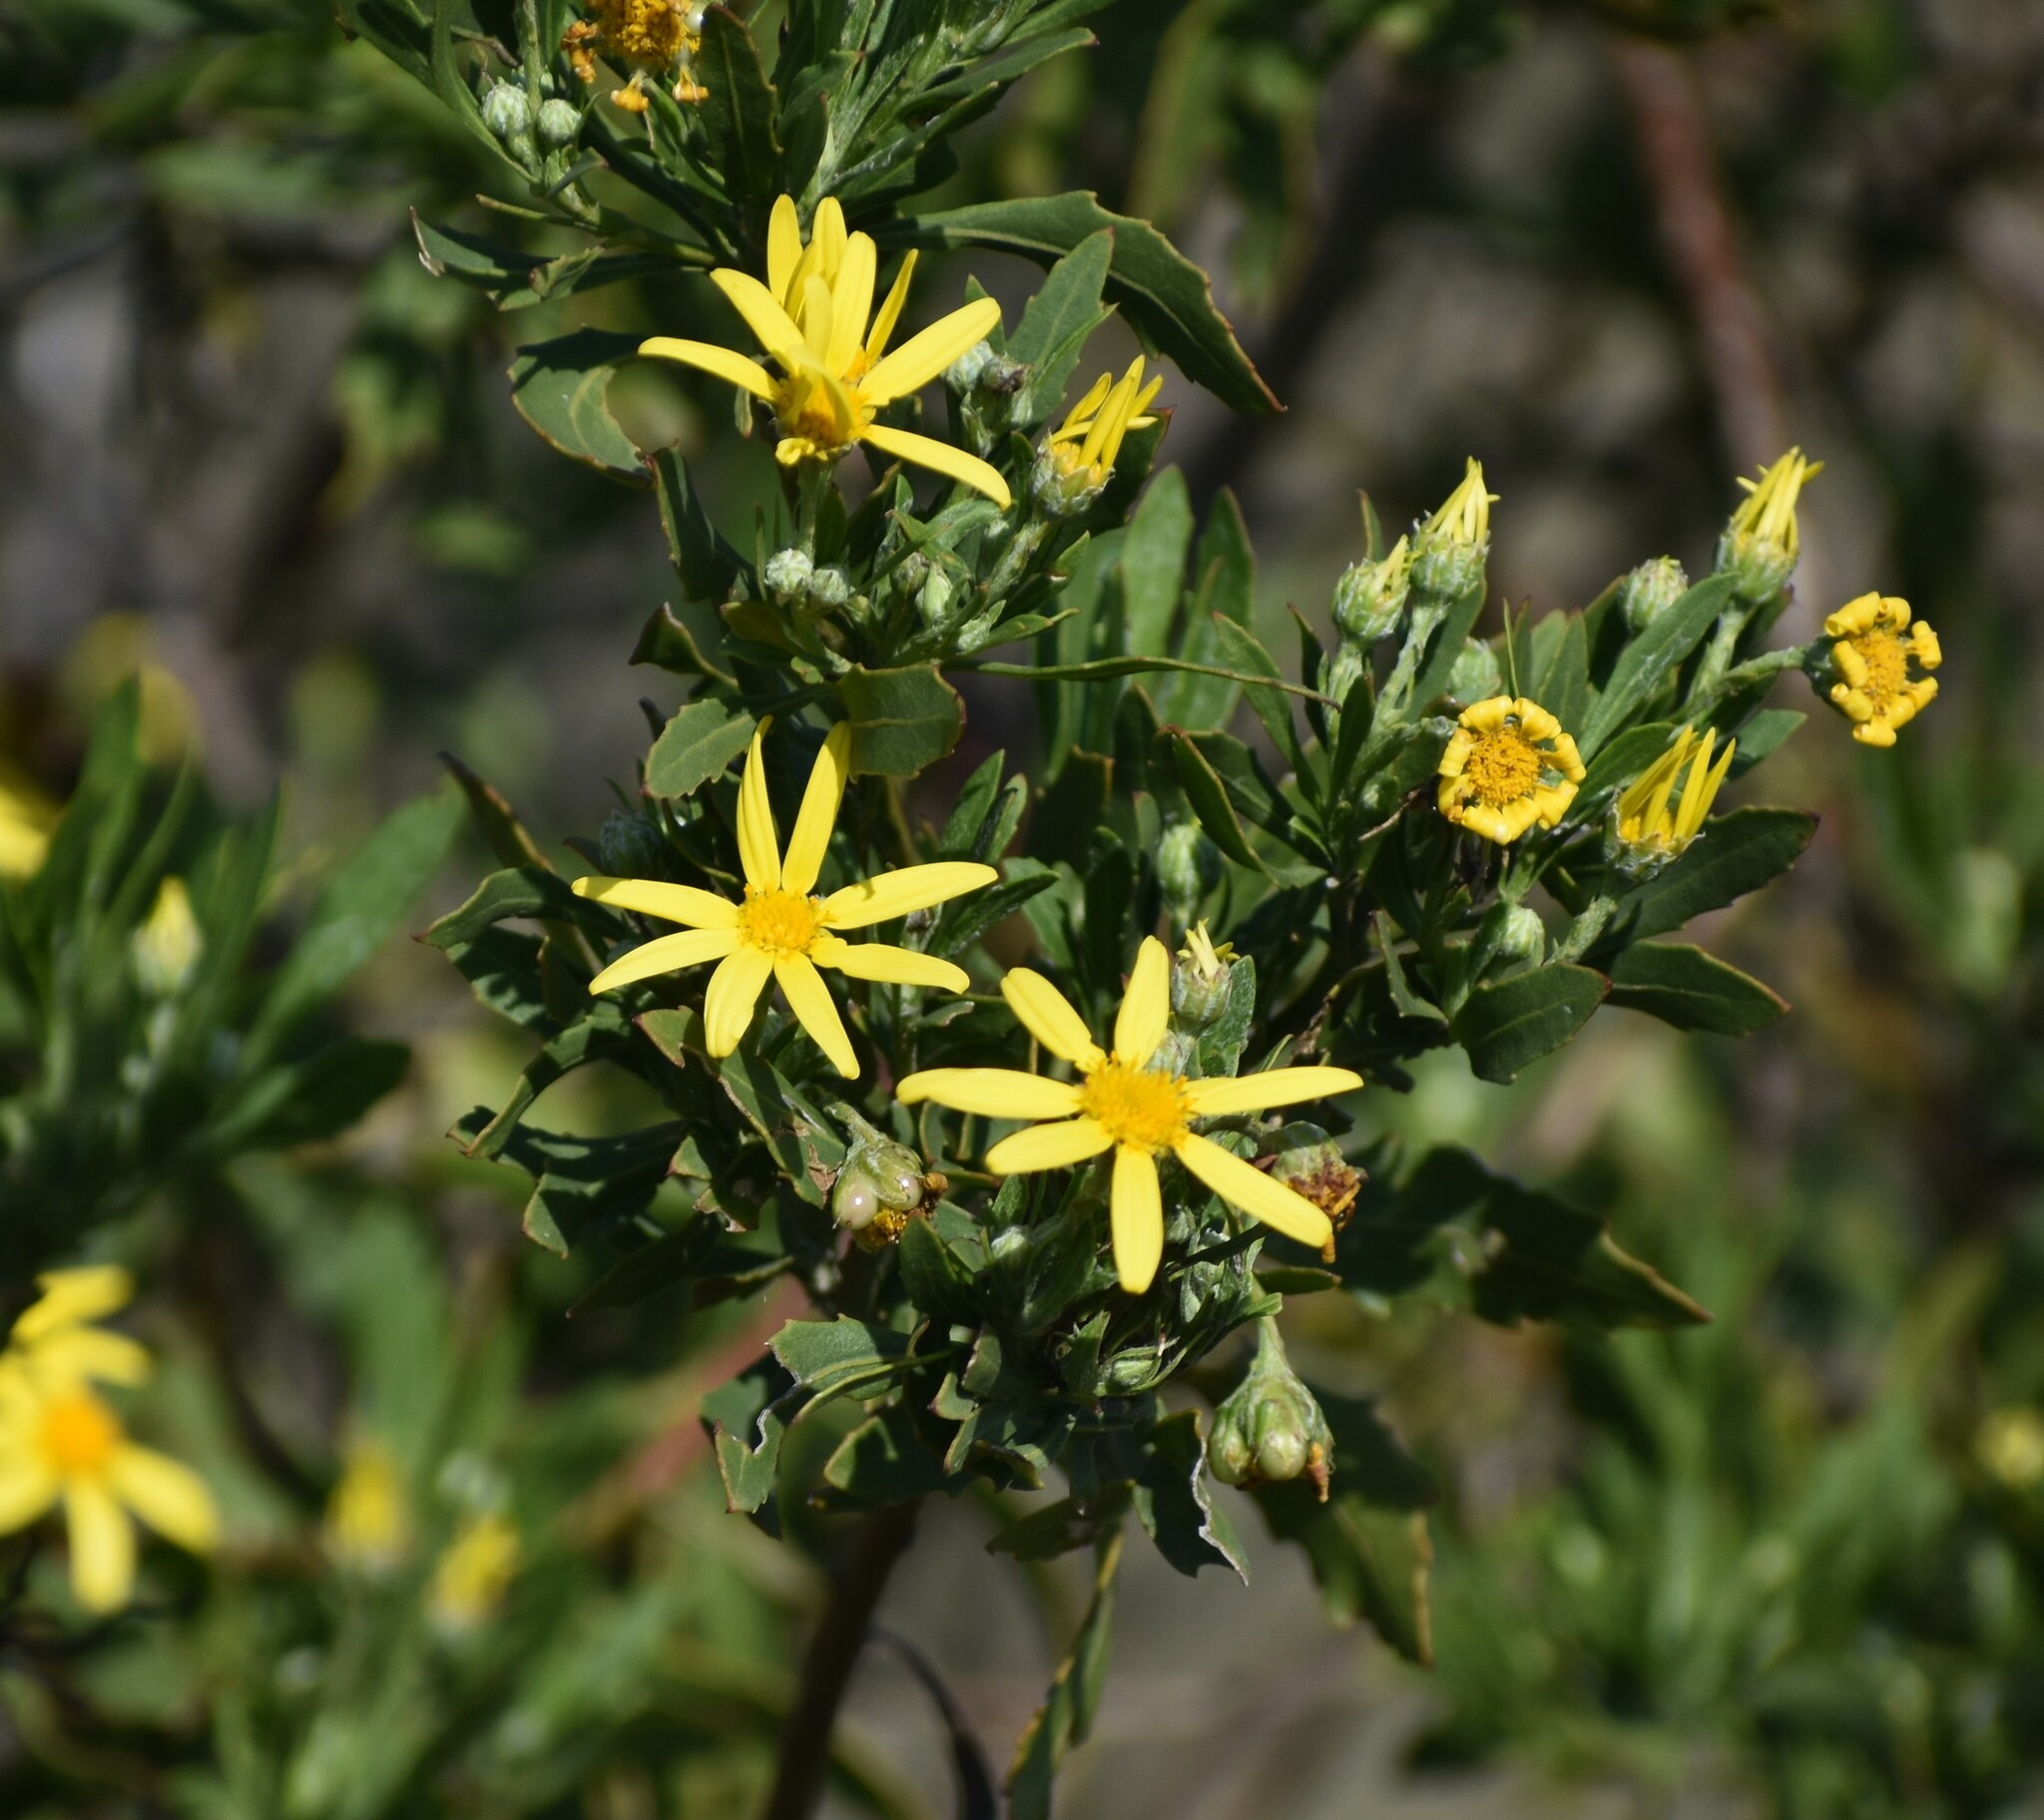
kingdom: Plantae
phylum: Tracheophyta
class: Magnoliopsida
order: Asterales
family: Asteraceae
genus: Osteospermum
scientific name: Osteospermum moniliferum
